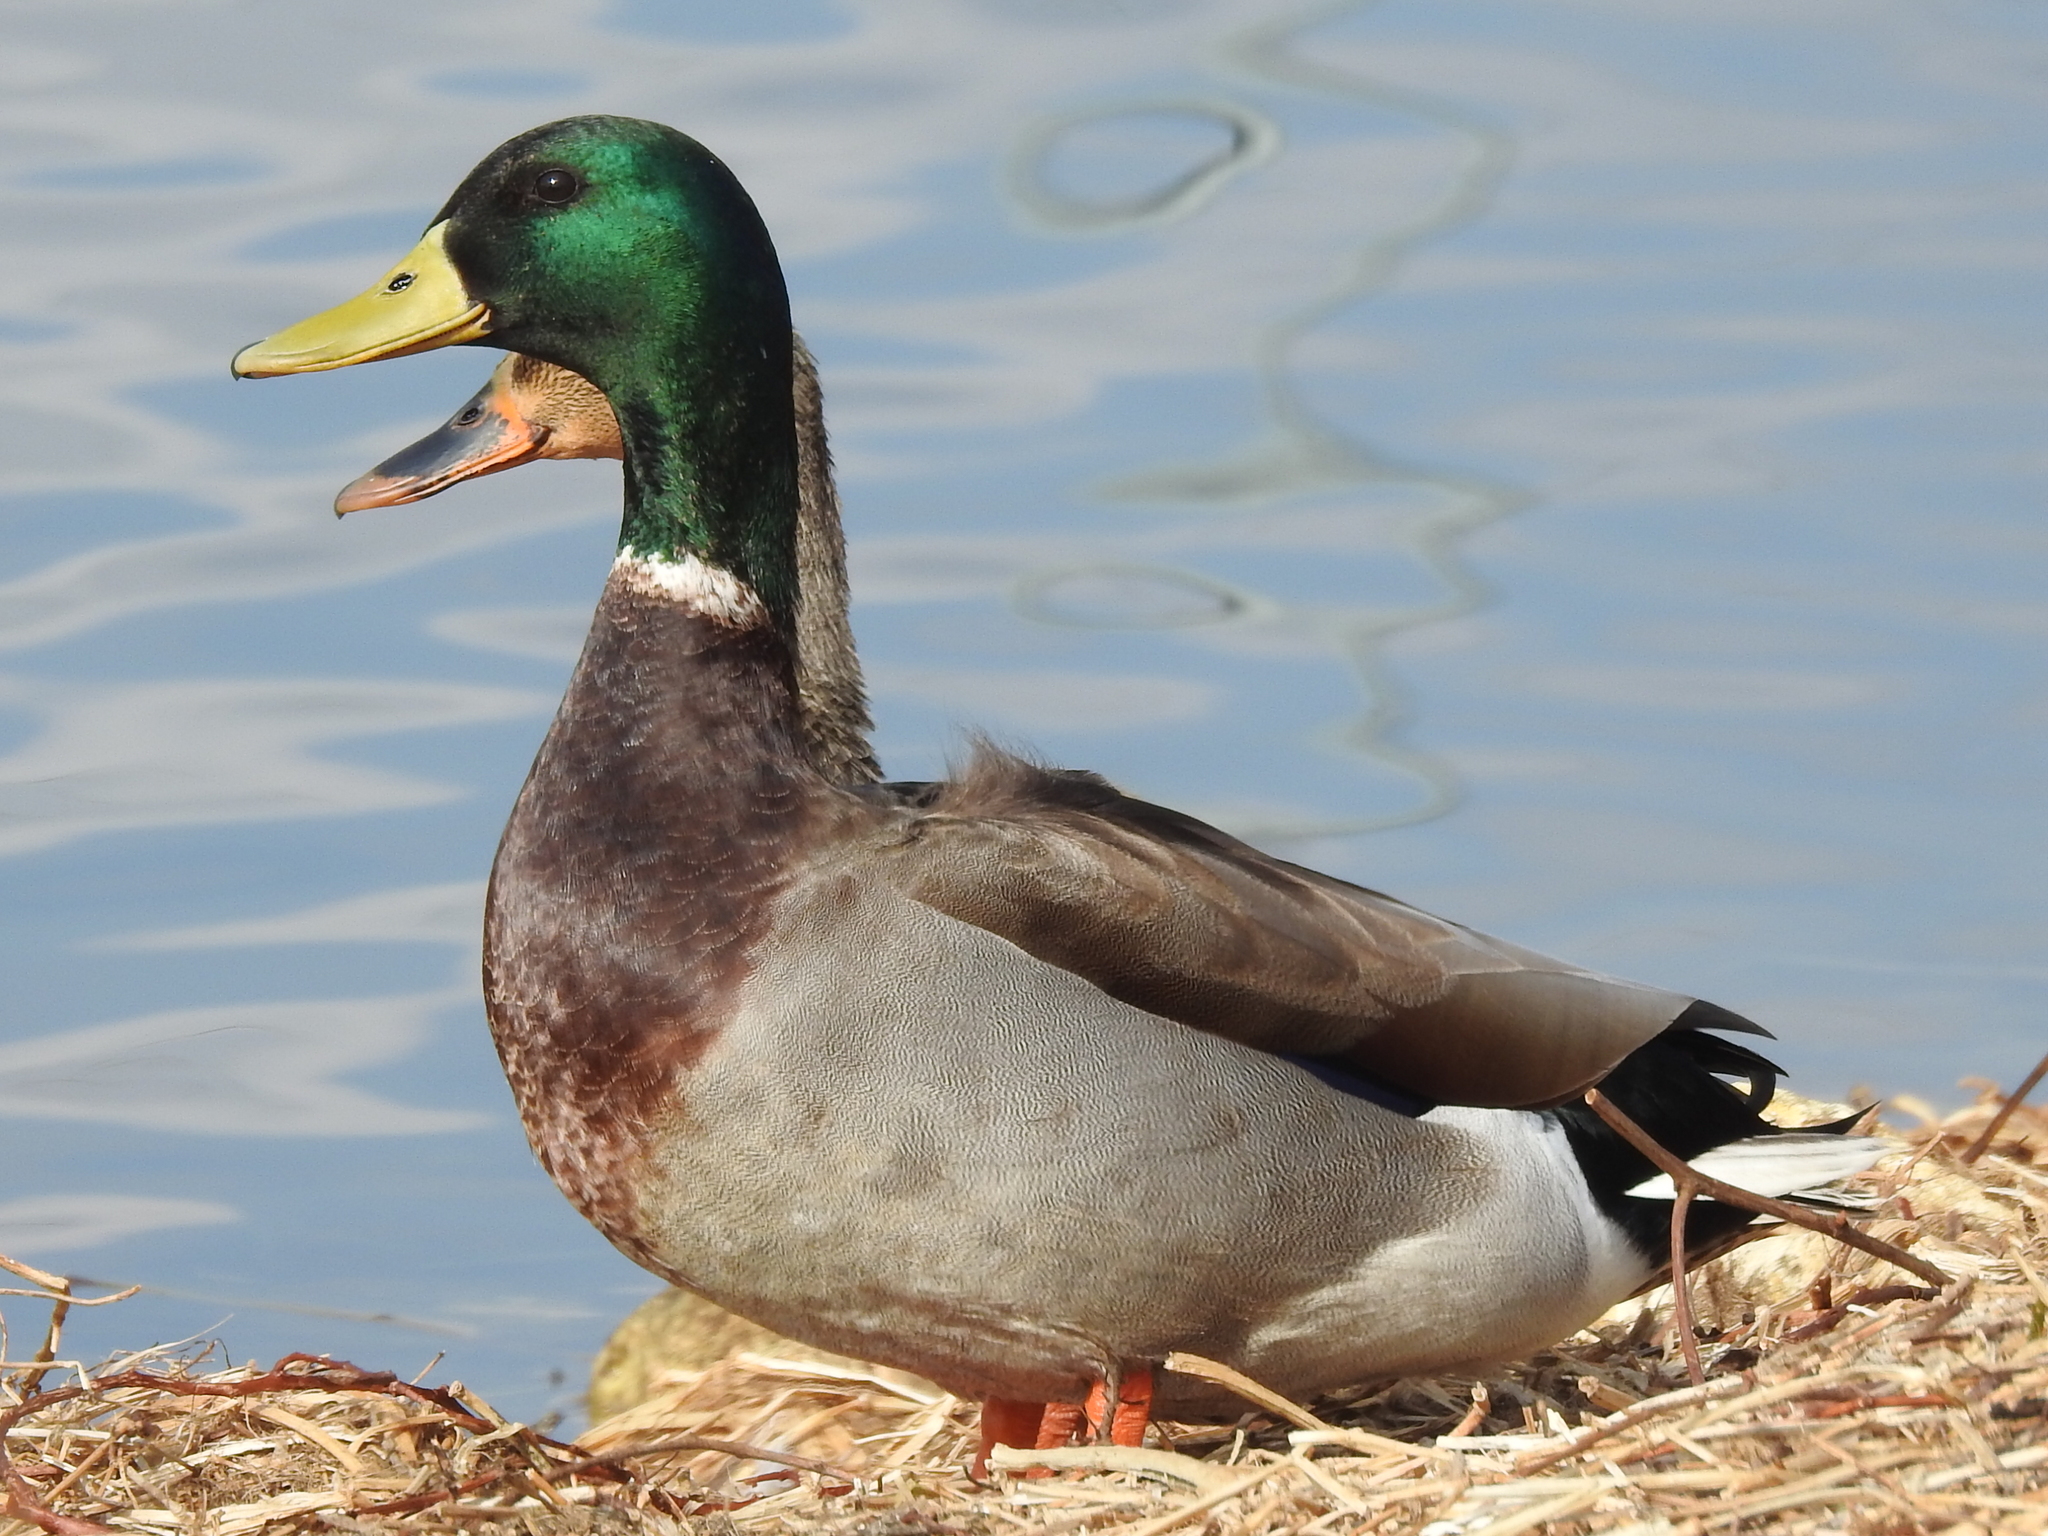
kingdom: Animalia
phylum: Chordata
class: Aves
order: Anseriformes
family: Anatidae
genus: Anas
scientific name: Anas platyrhynchos
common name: Mallard
